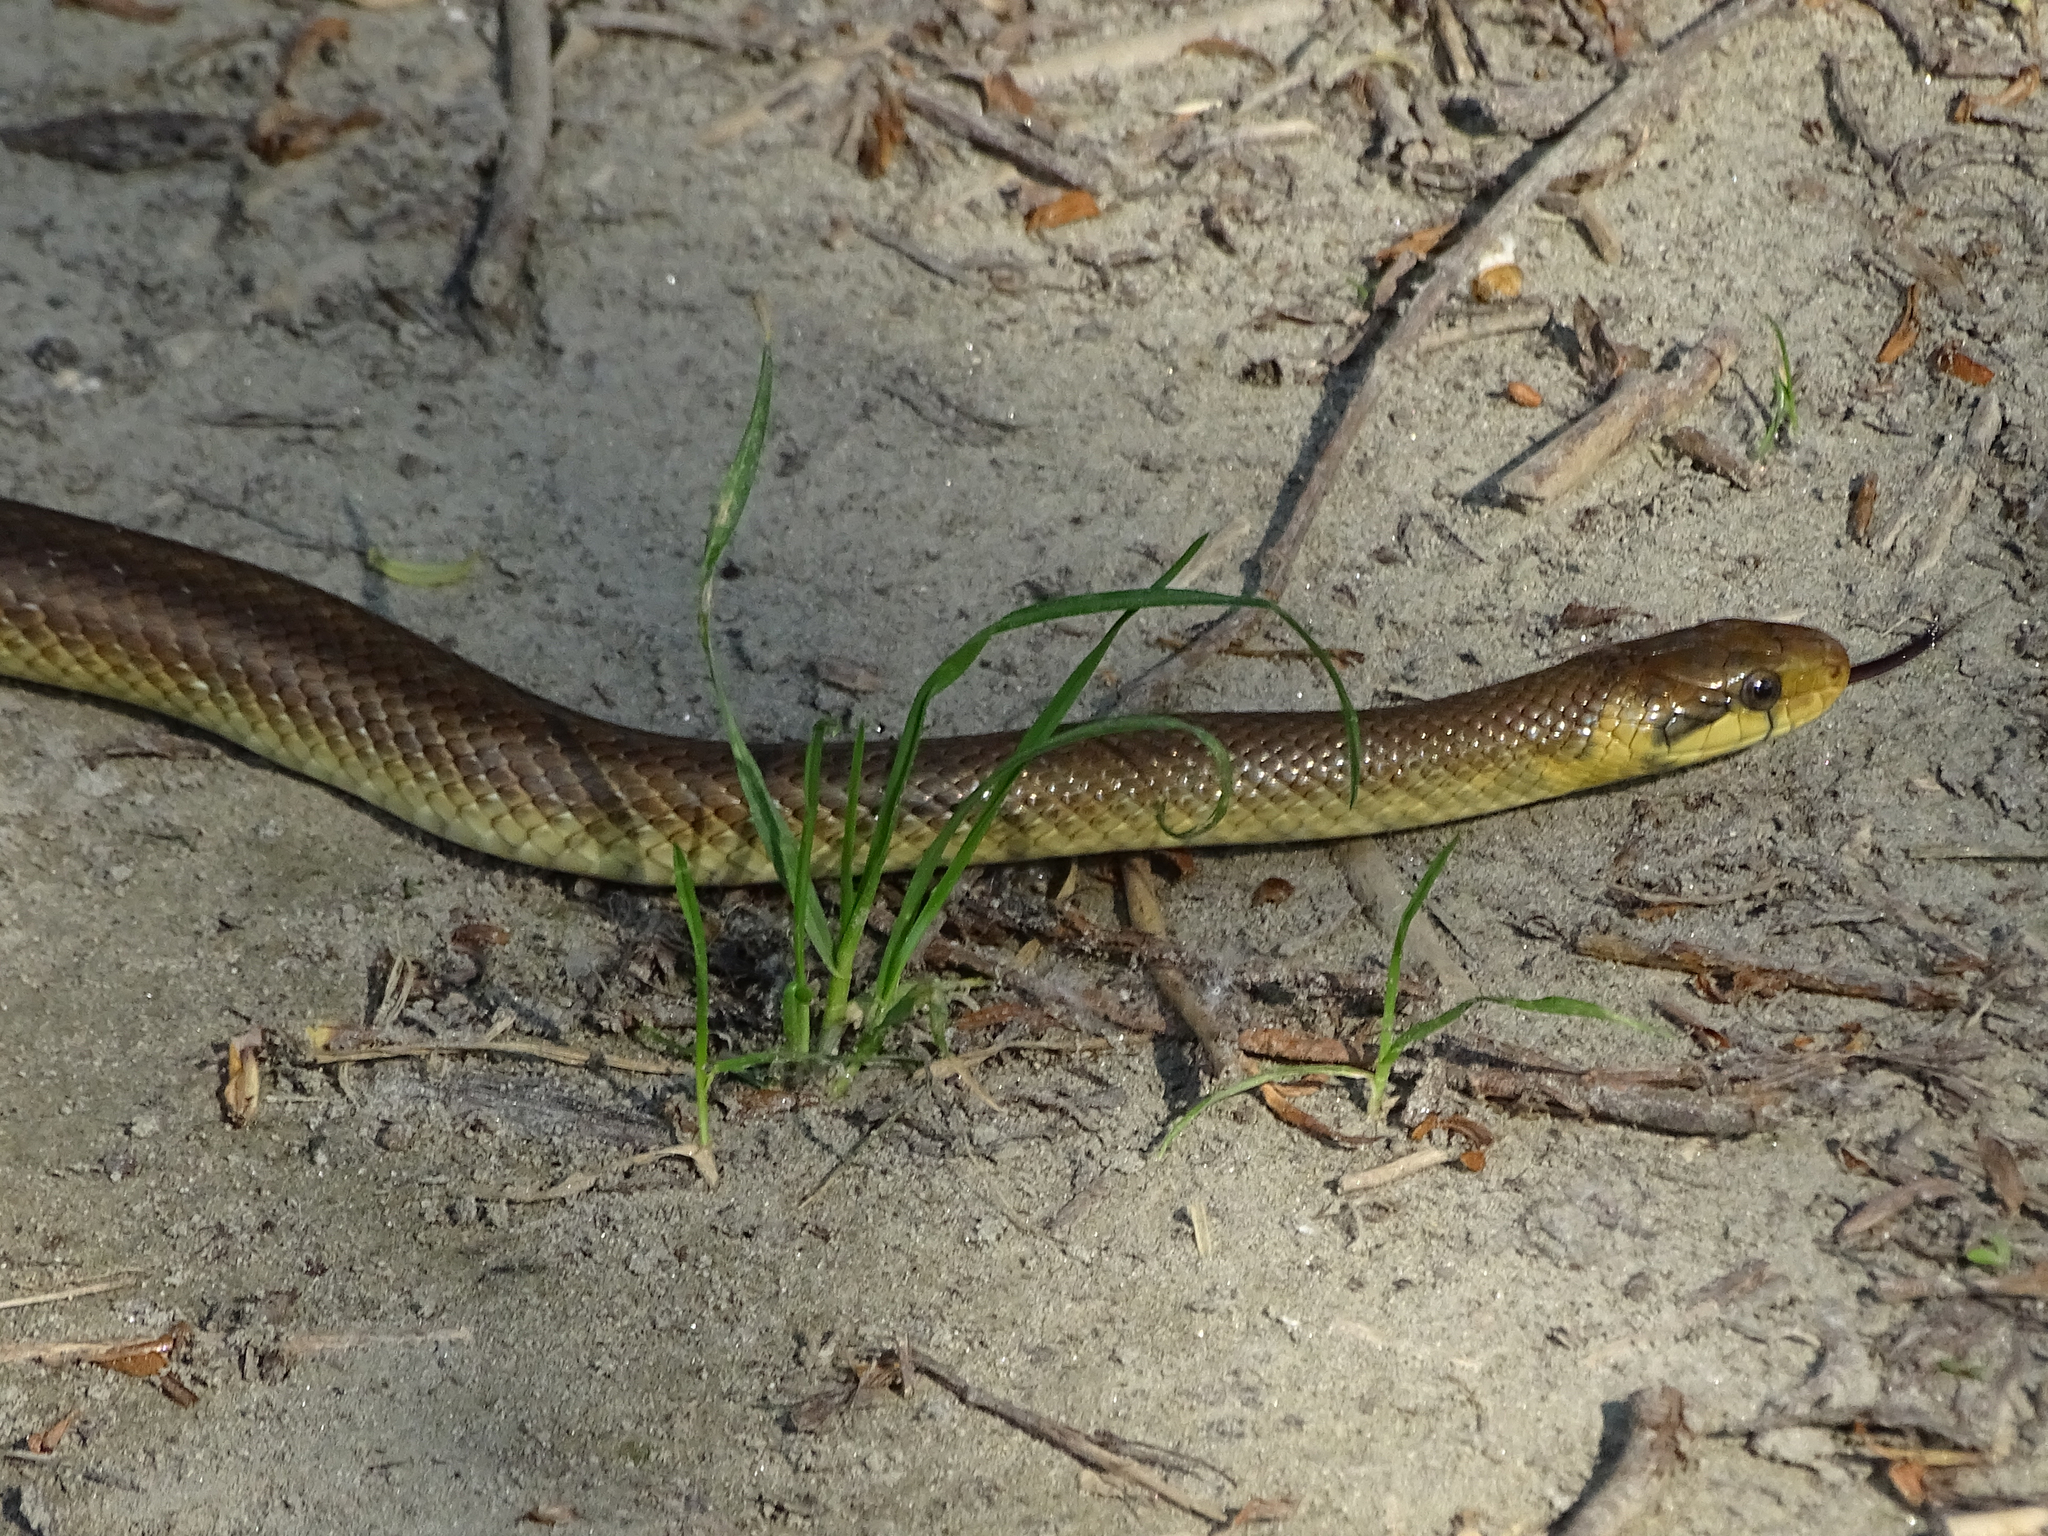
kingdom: Animalia
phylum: Chordata
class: Squamata
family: Colubridae
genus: Zamenis
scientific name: Zamenis longissimus
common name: Aesculapean snake
